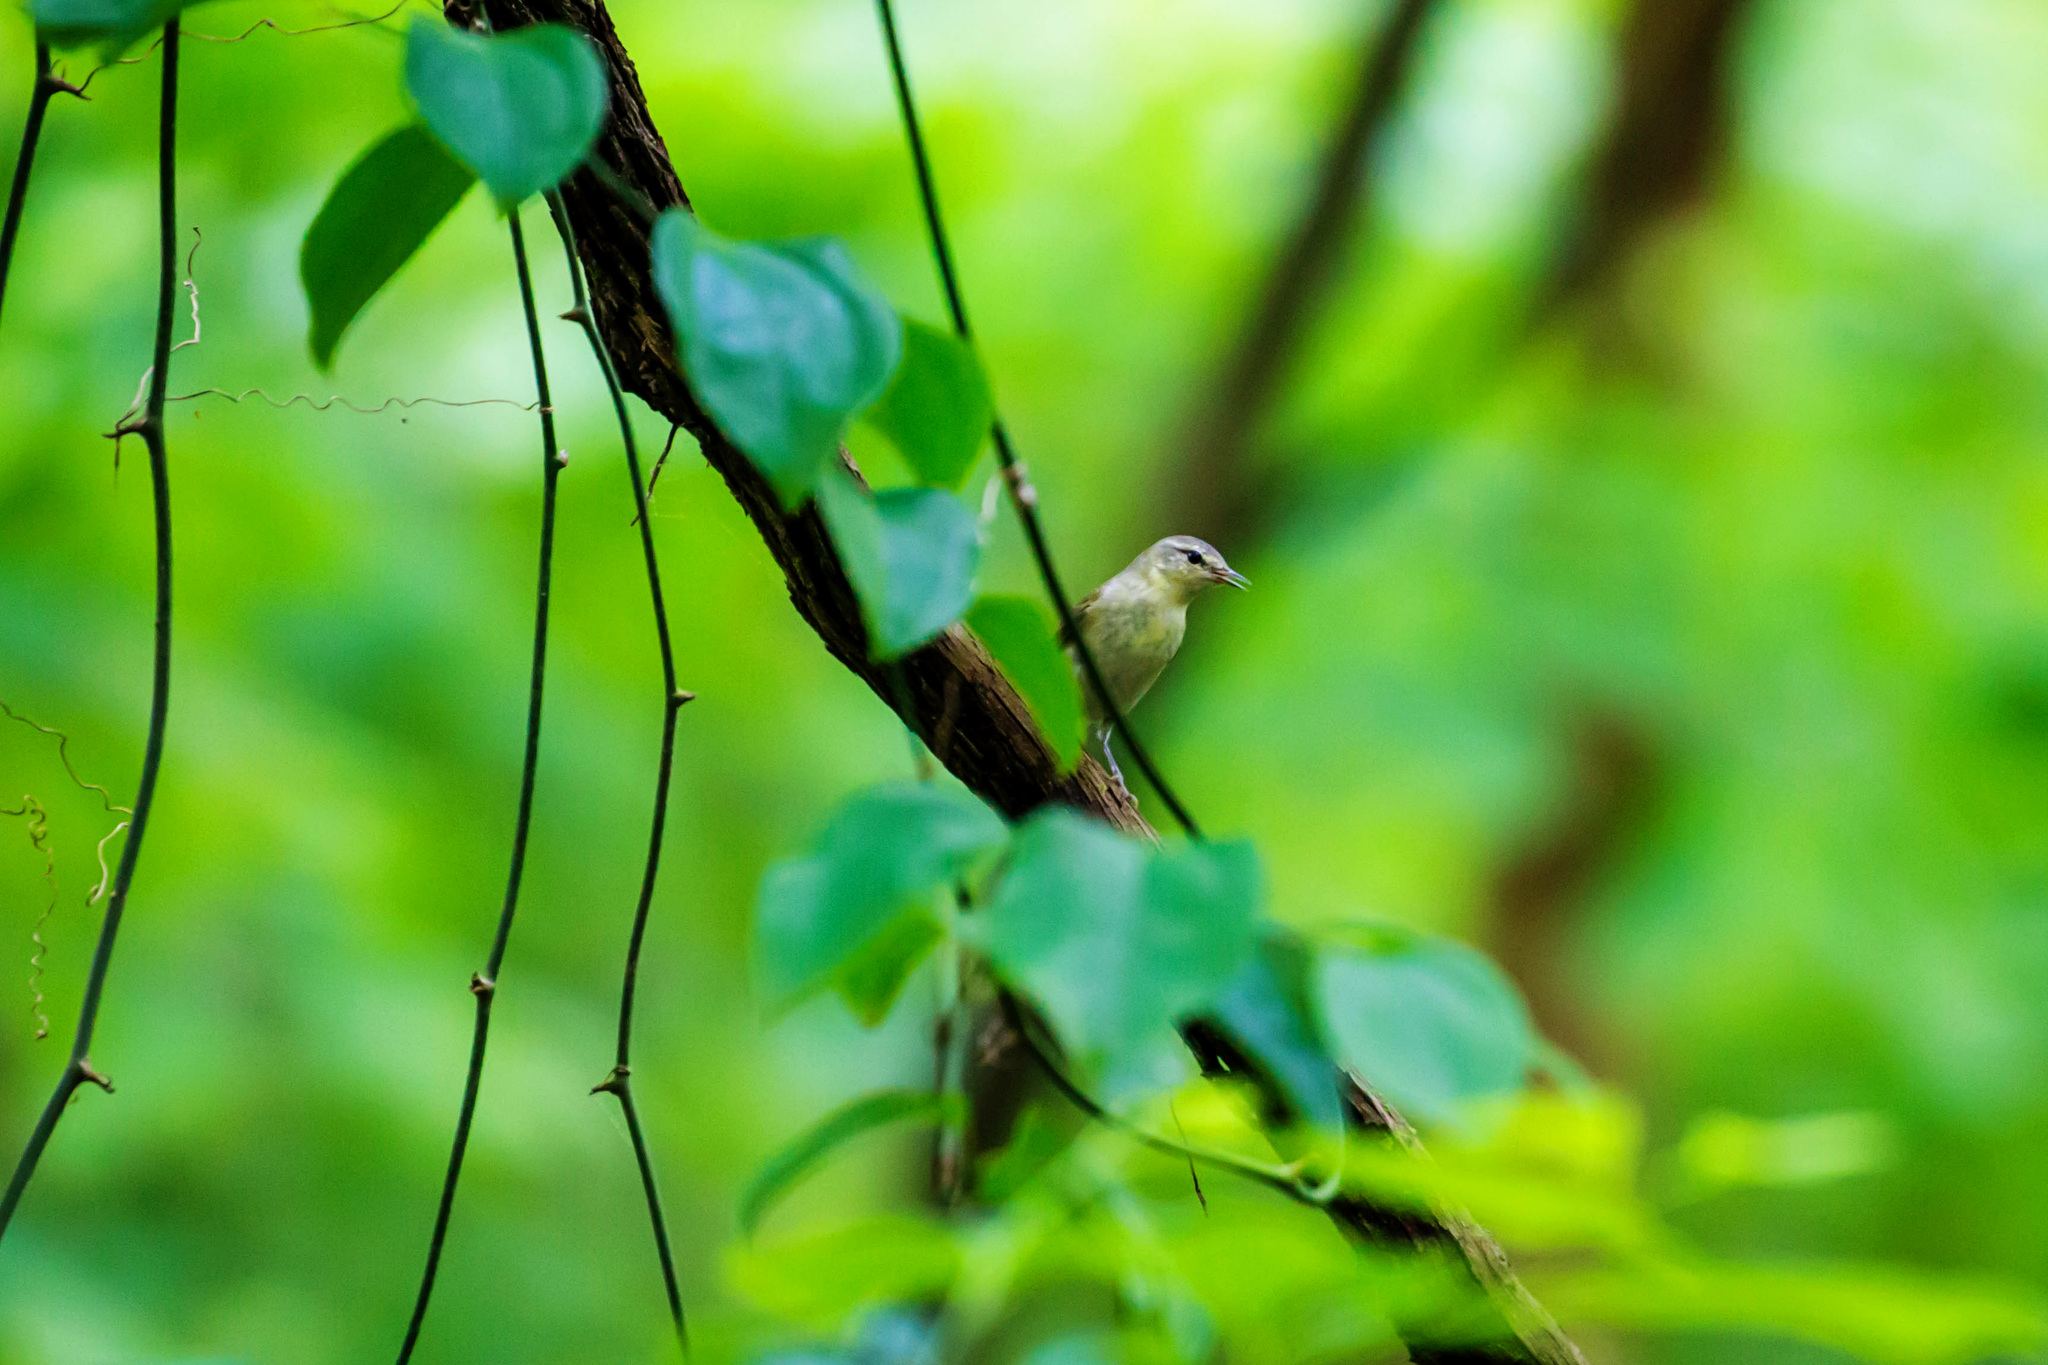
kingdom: Animalia
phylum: Chordata
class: Aves
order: Passeriformes
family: Parulidae
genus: Leiothlypis
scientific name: Leiothlypis peregrina
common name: Tennessee warbler
